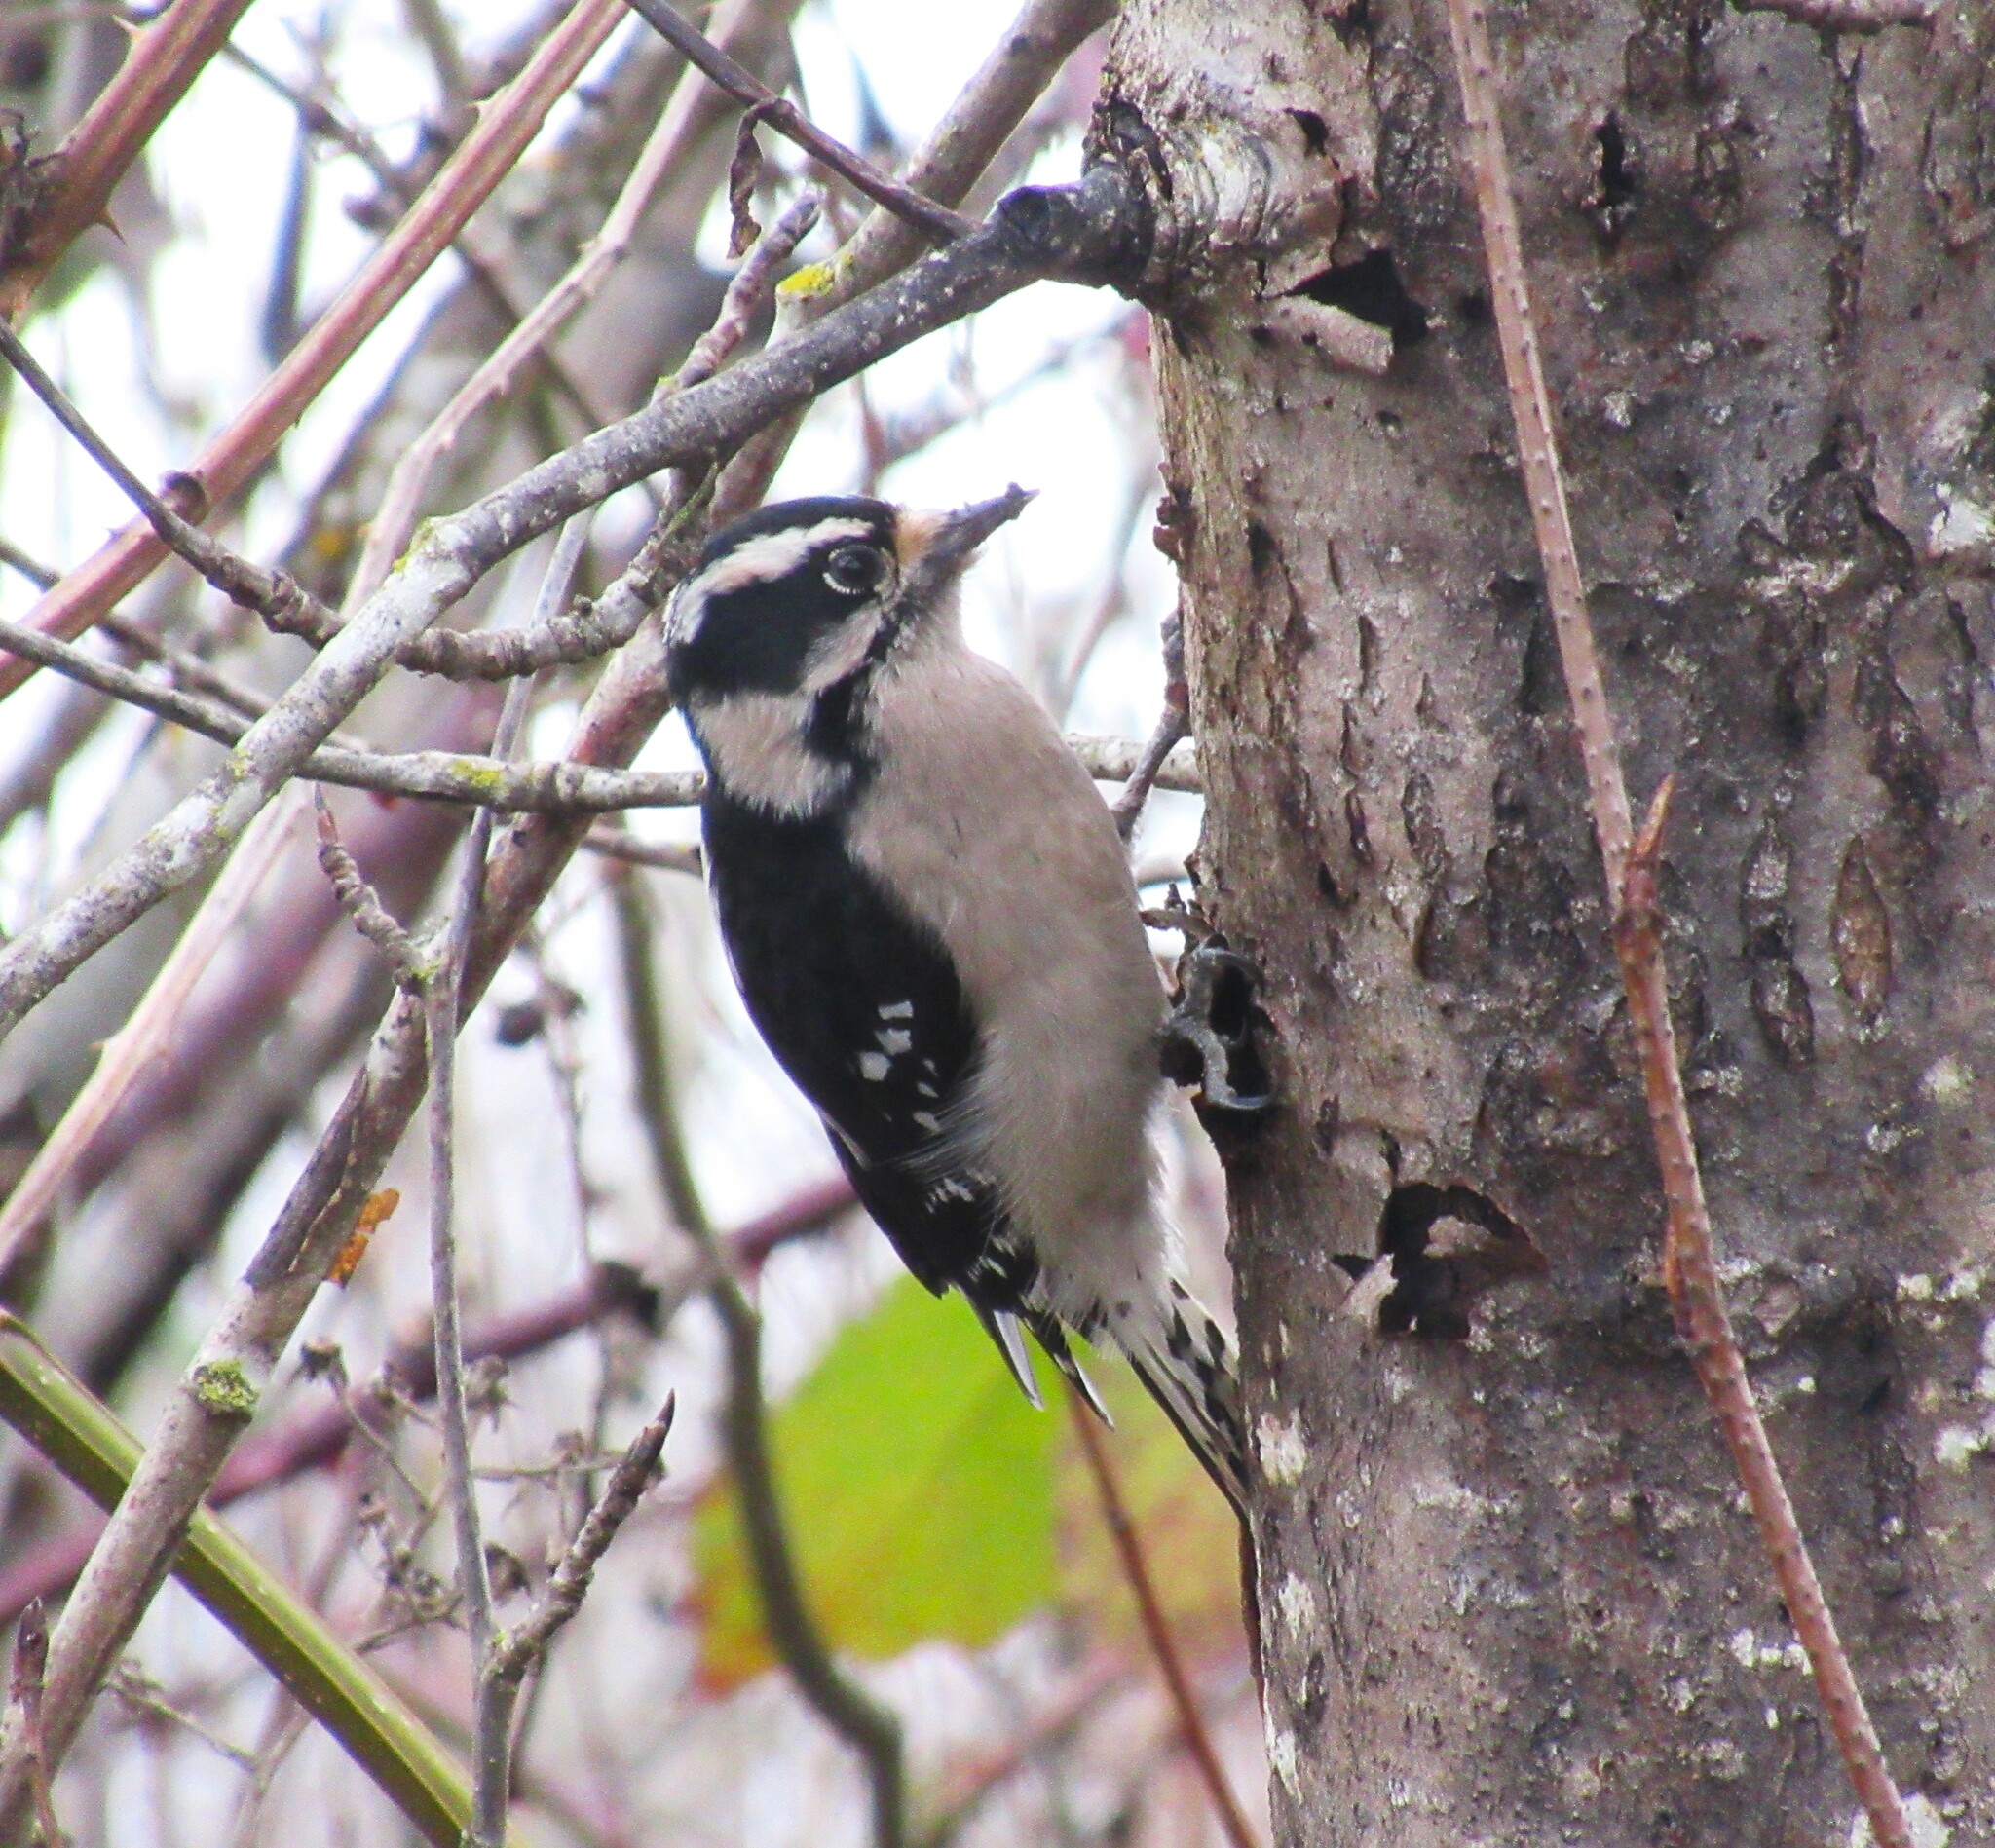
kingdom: Animalia
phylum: Chordata
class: Aves
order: Piciformes
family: Picidae
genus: Dryobates
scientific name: Dryobates pubescens
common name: Downy woodpecker
